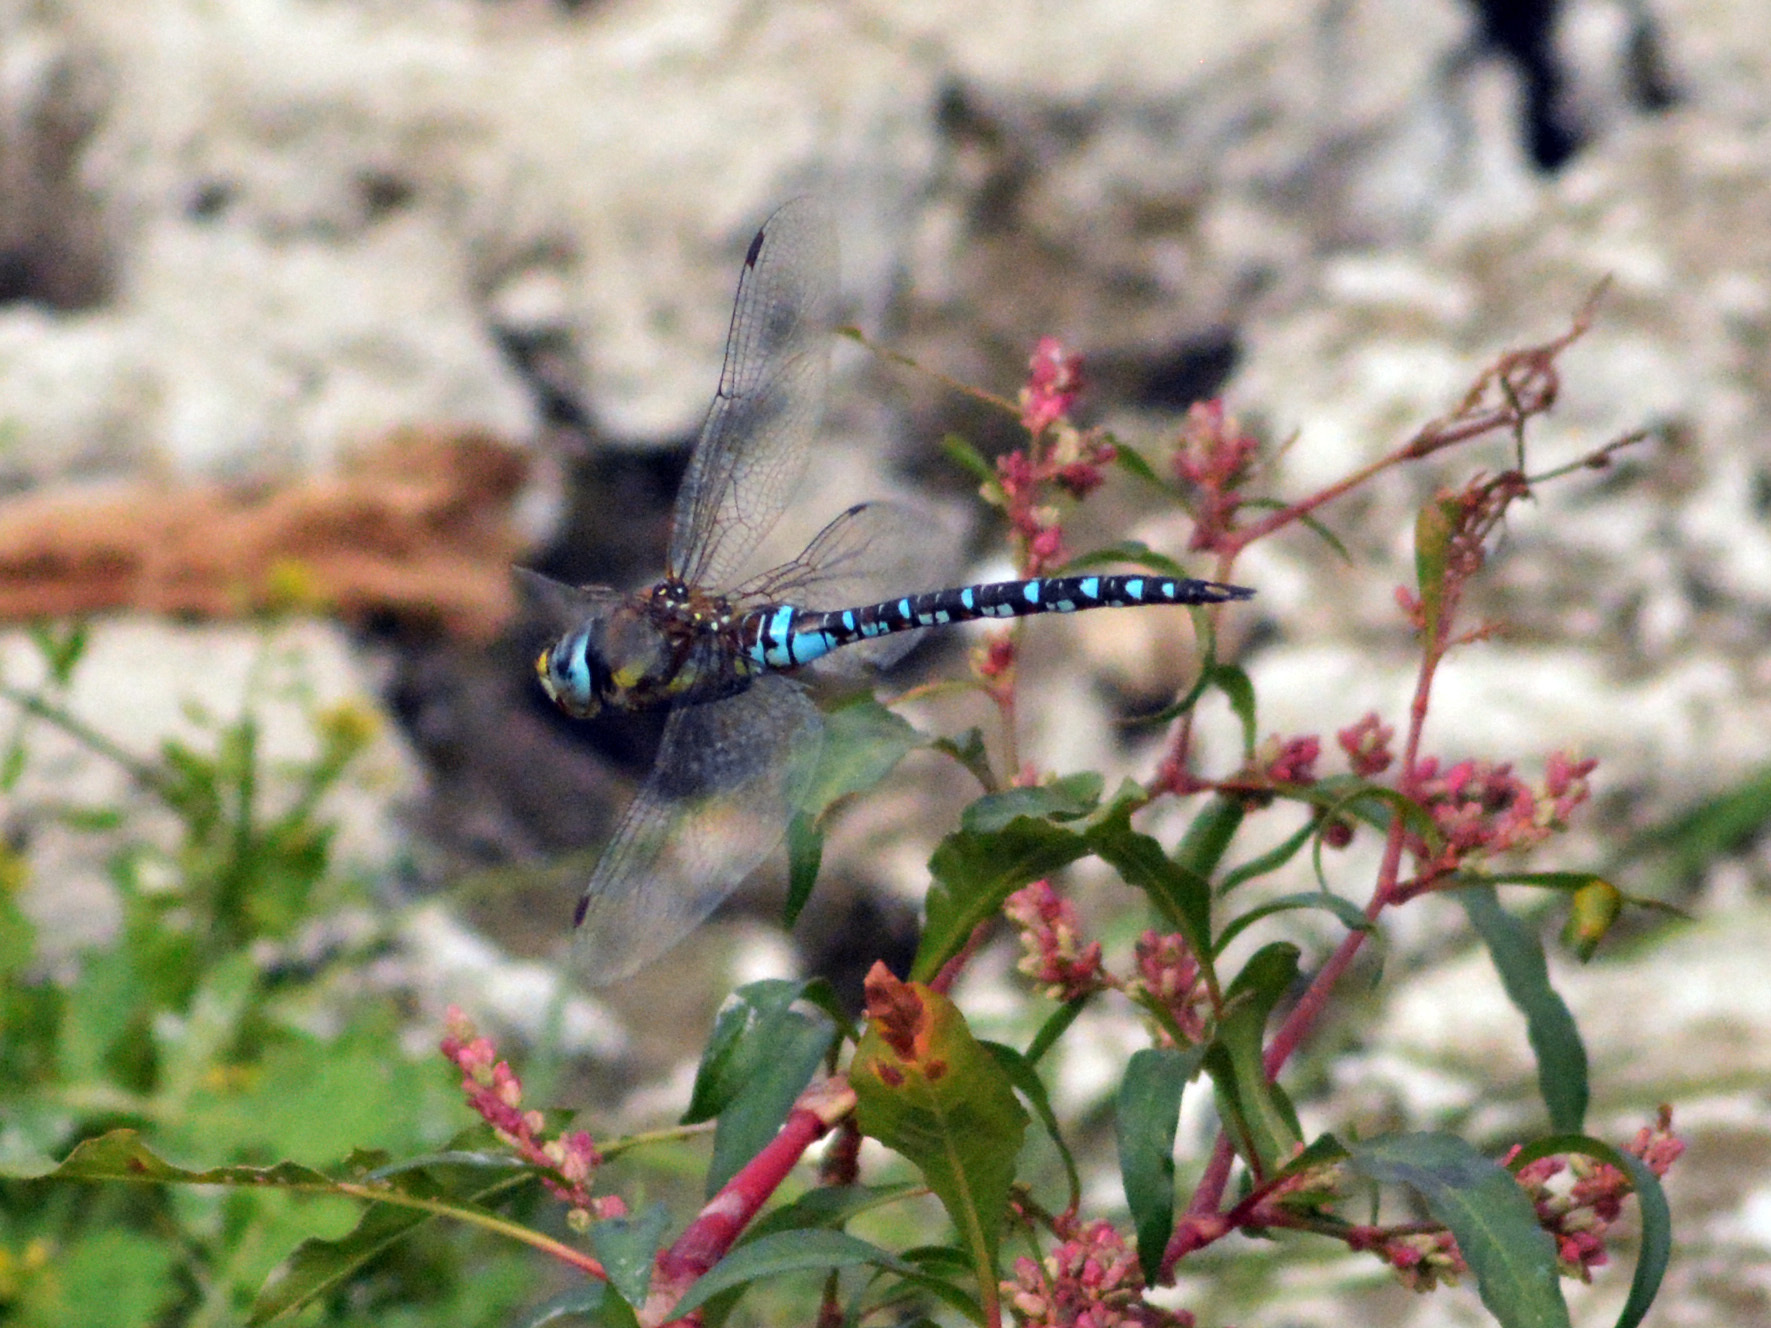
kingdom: Animalia
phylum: Arthropoda
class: Insecta
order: Odonata
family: Aeshnidae
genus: Aeshna
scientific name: Aeshna mixta
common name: Migrant hawker
